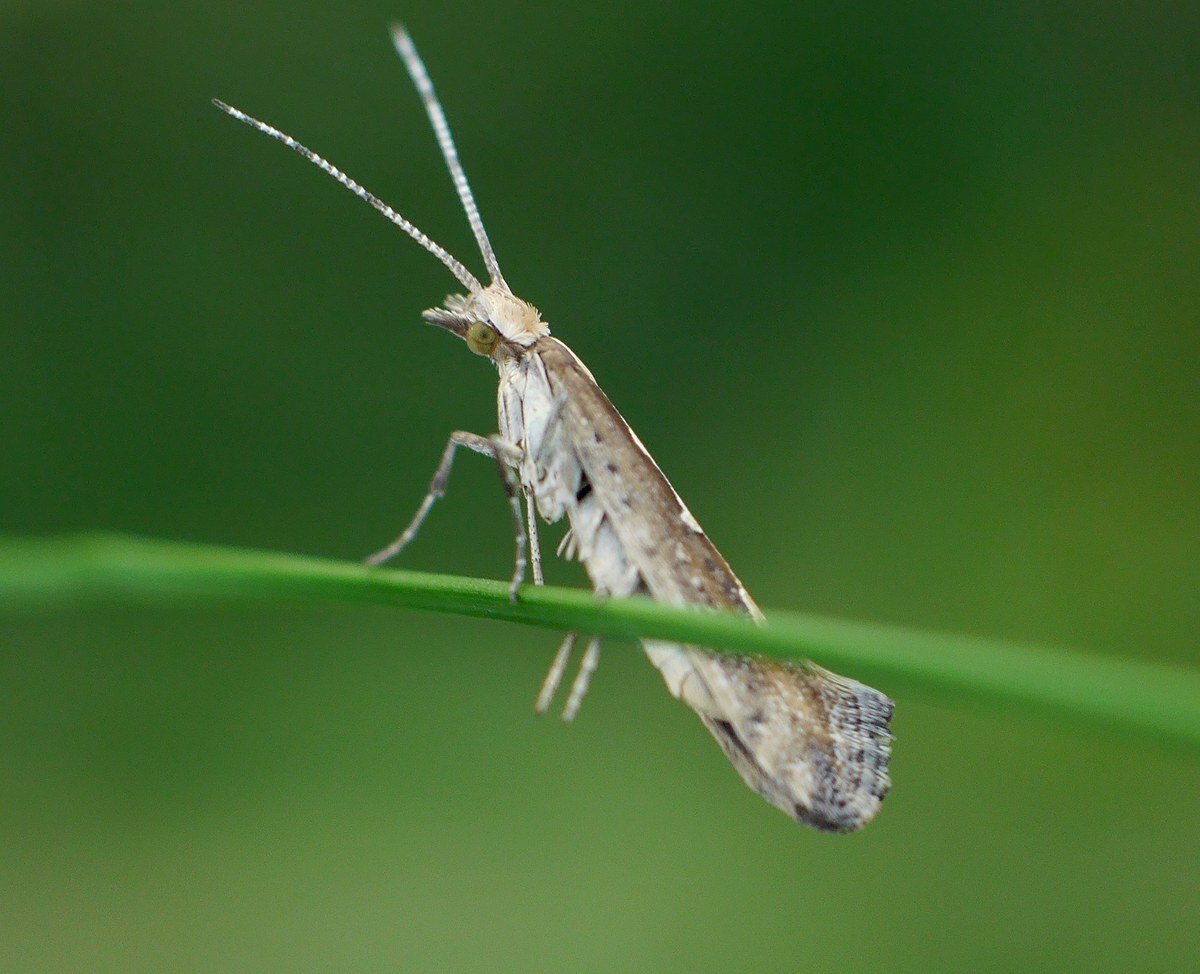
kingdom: Animalia
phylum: Arthropoda
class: Insecta
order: Lepidoptera
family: Plutellidae
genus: Plutella
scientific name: Plutella xylostella
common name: Diamond-back moth
